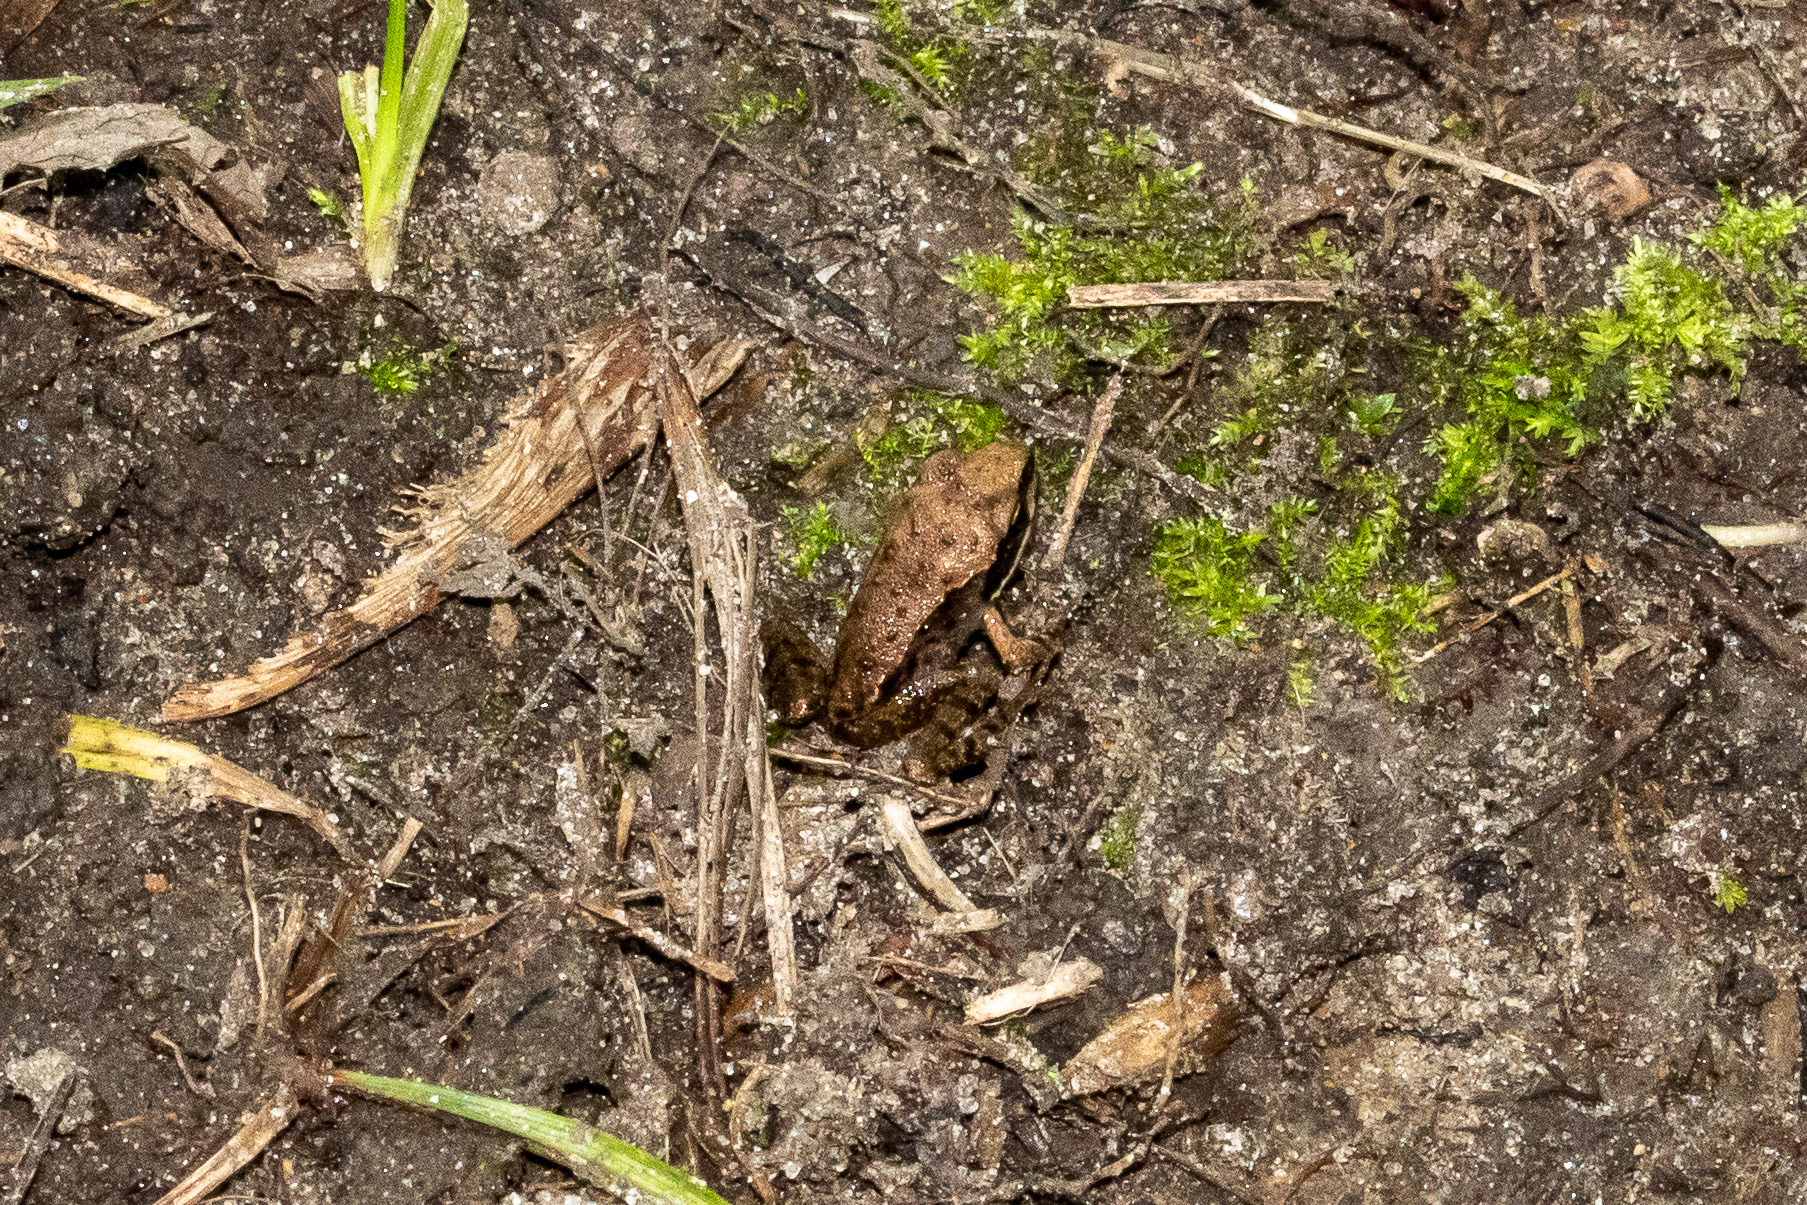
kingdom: Animalia
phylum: Chordata
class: Amphibia
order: Anura
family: Ranidae
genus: Lithobates
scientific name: Lithobates sylvaticus
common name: Wood frog
